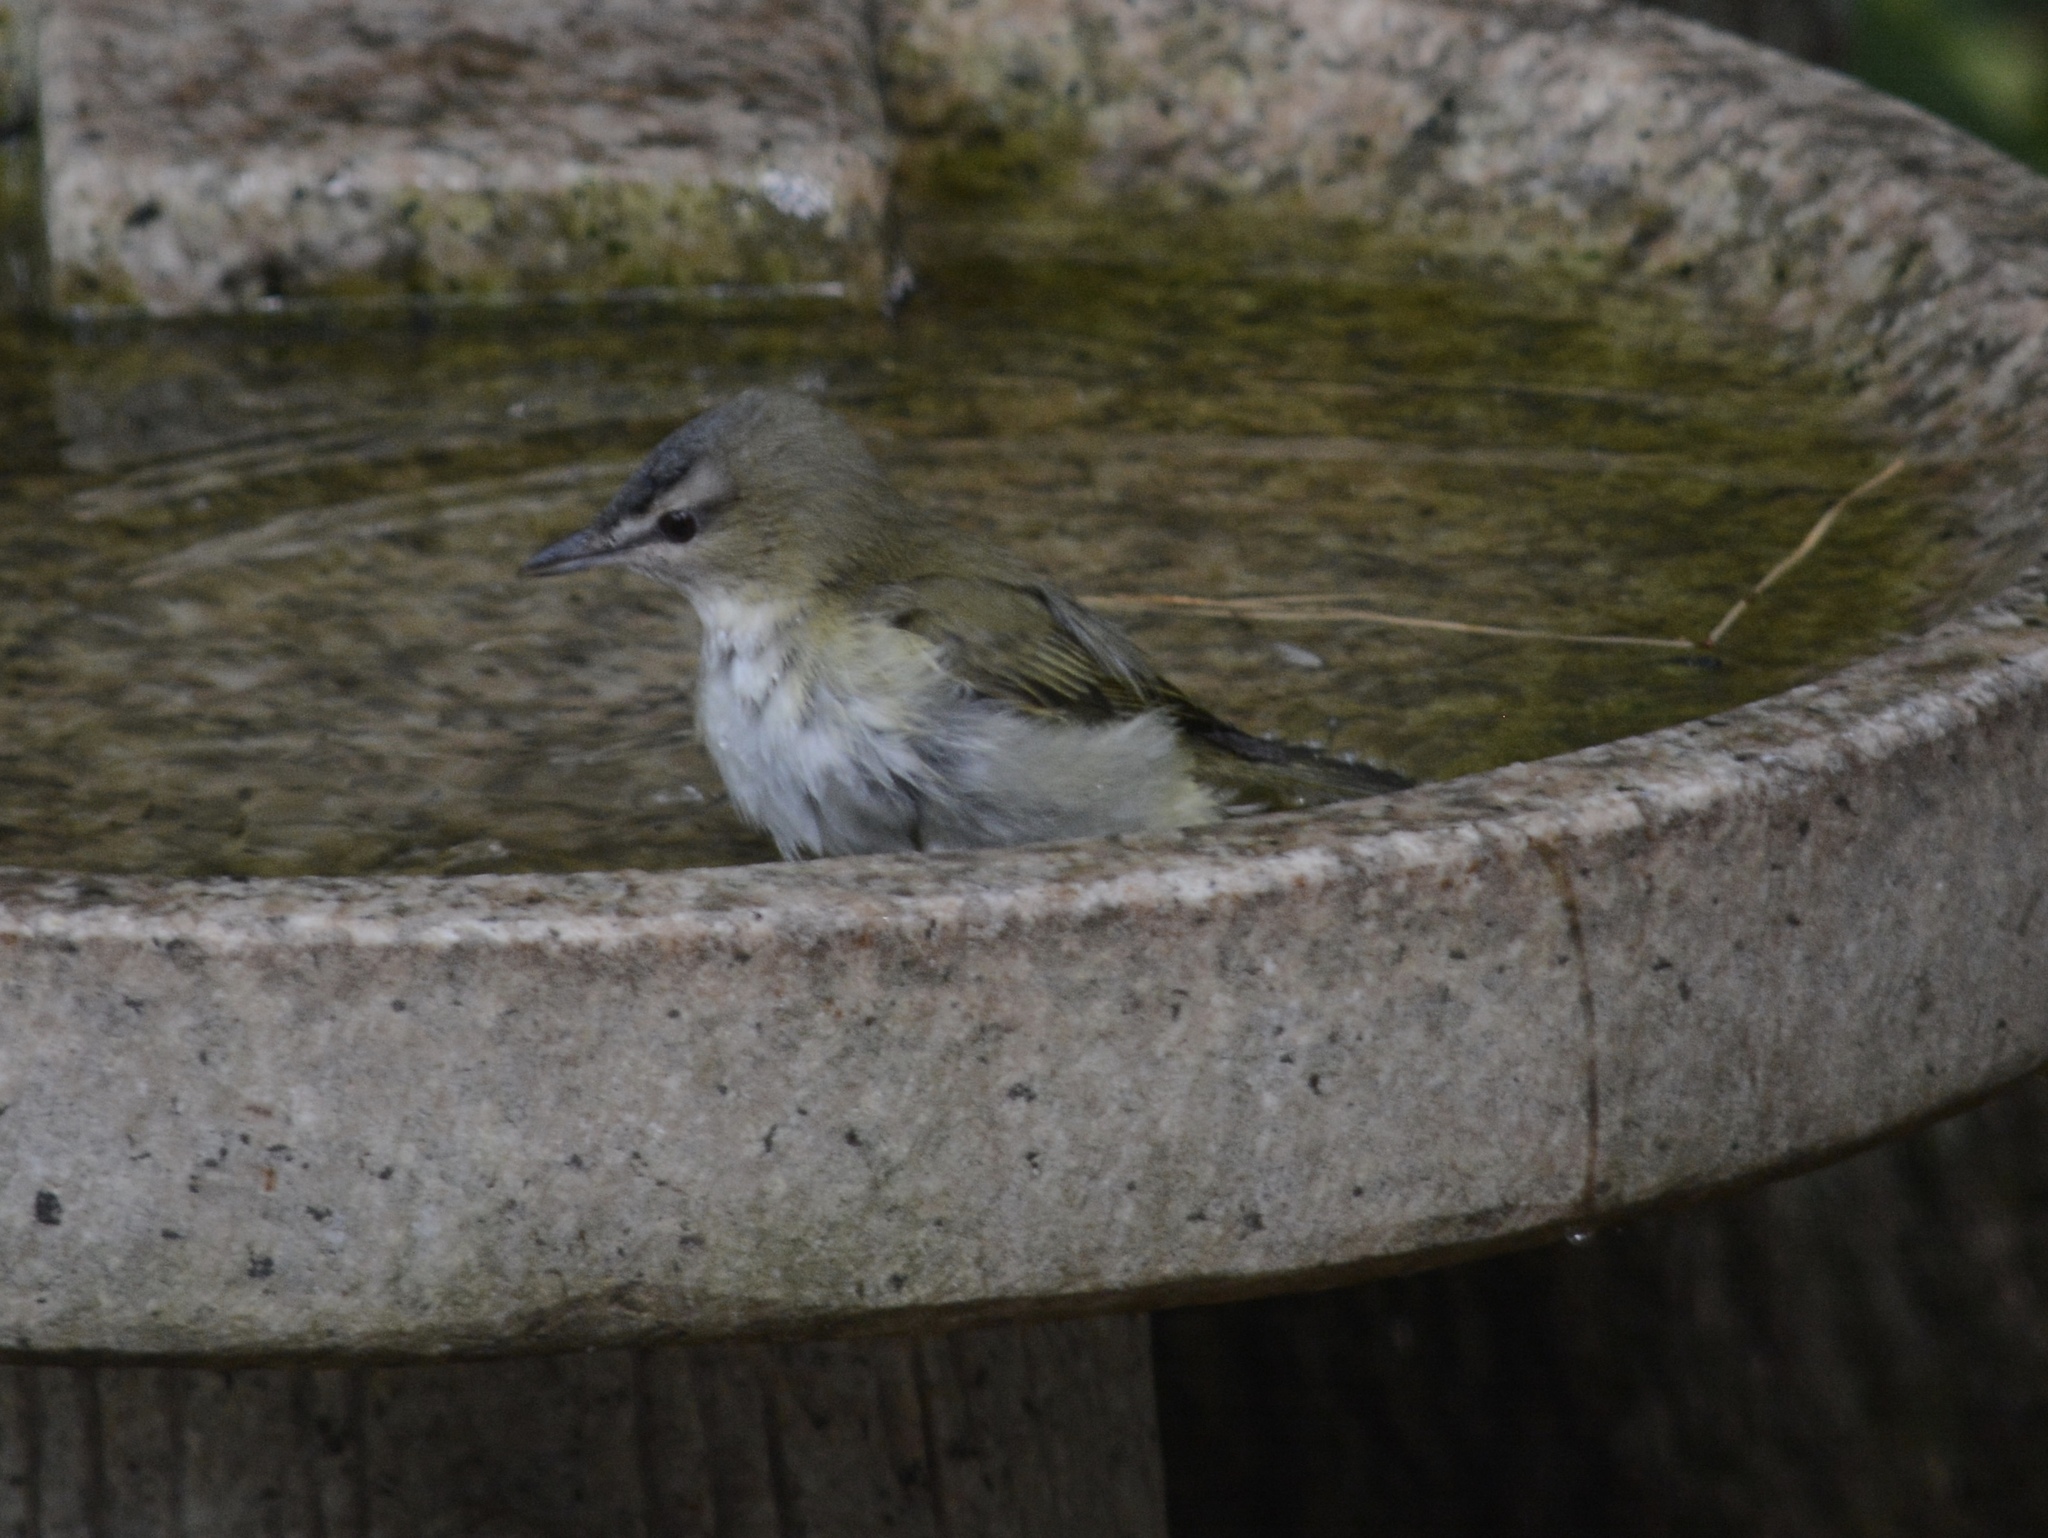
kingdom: Animalia
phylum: Chordata
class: Aves
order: Passeriformes
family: Vireonidae
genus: Vireo
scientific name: Vireo olivaceus
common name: Red-eyed vireo
